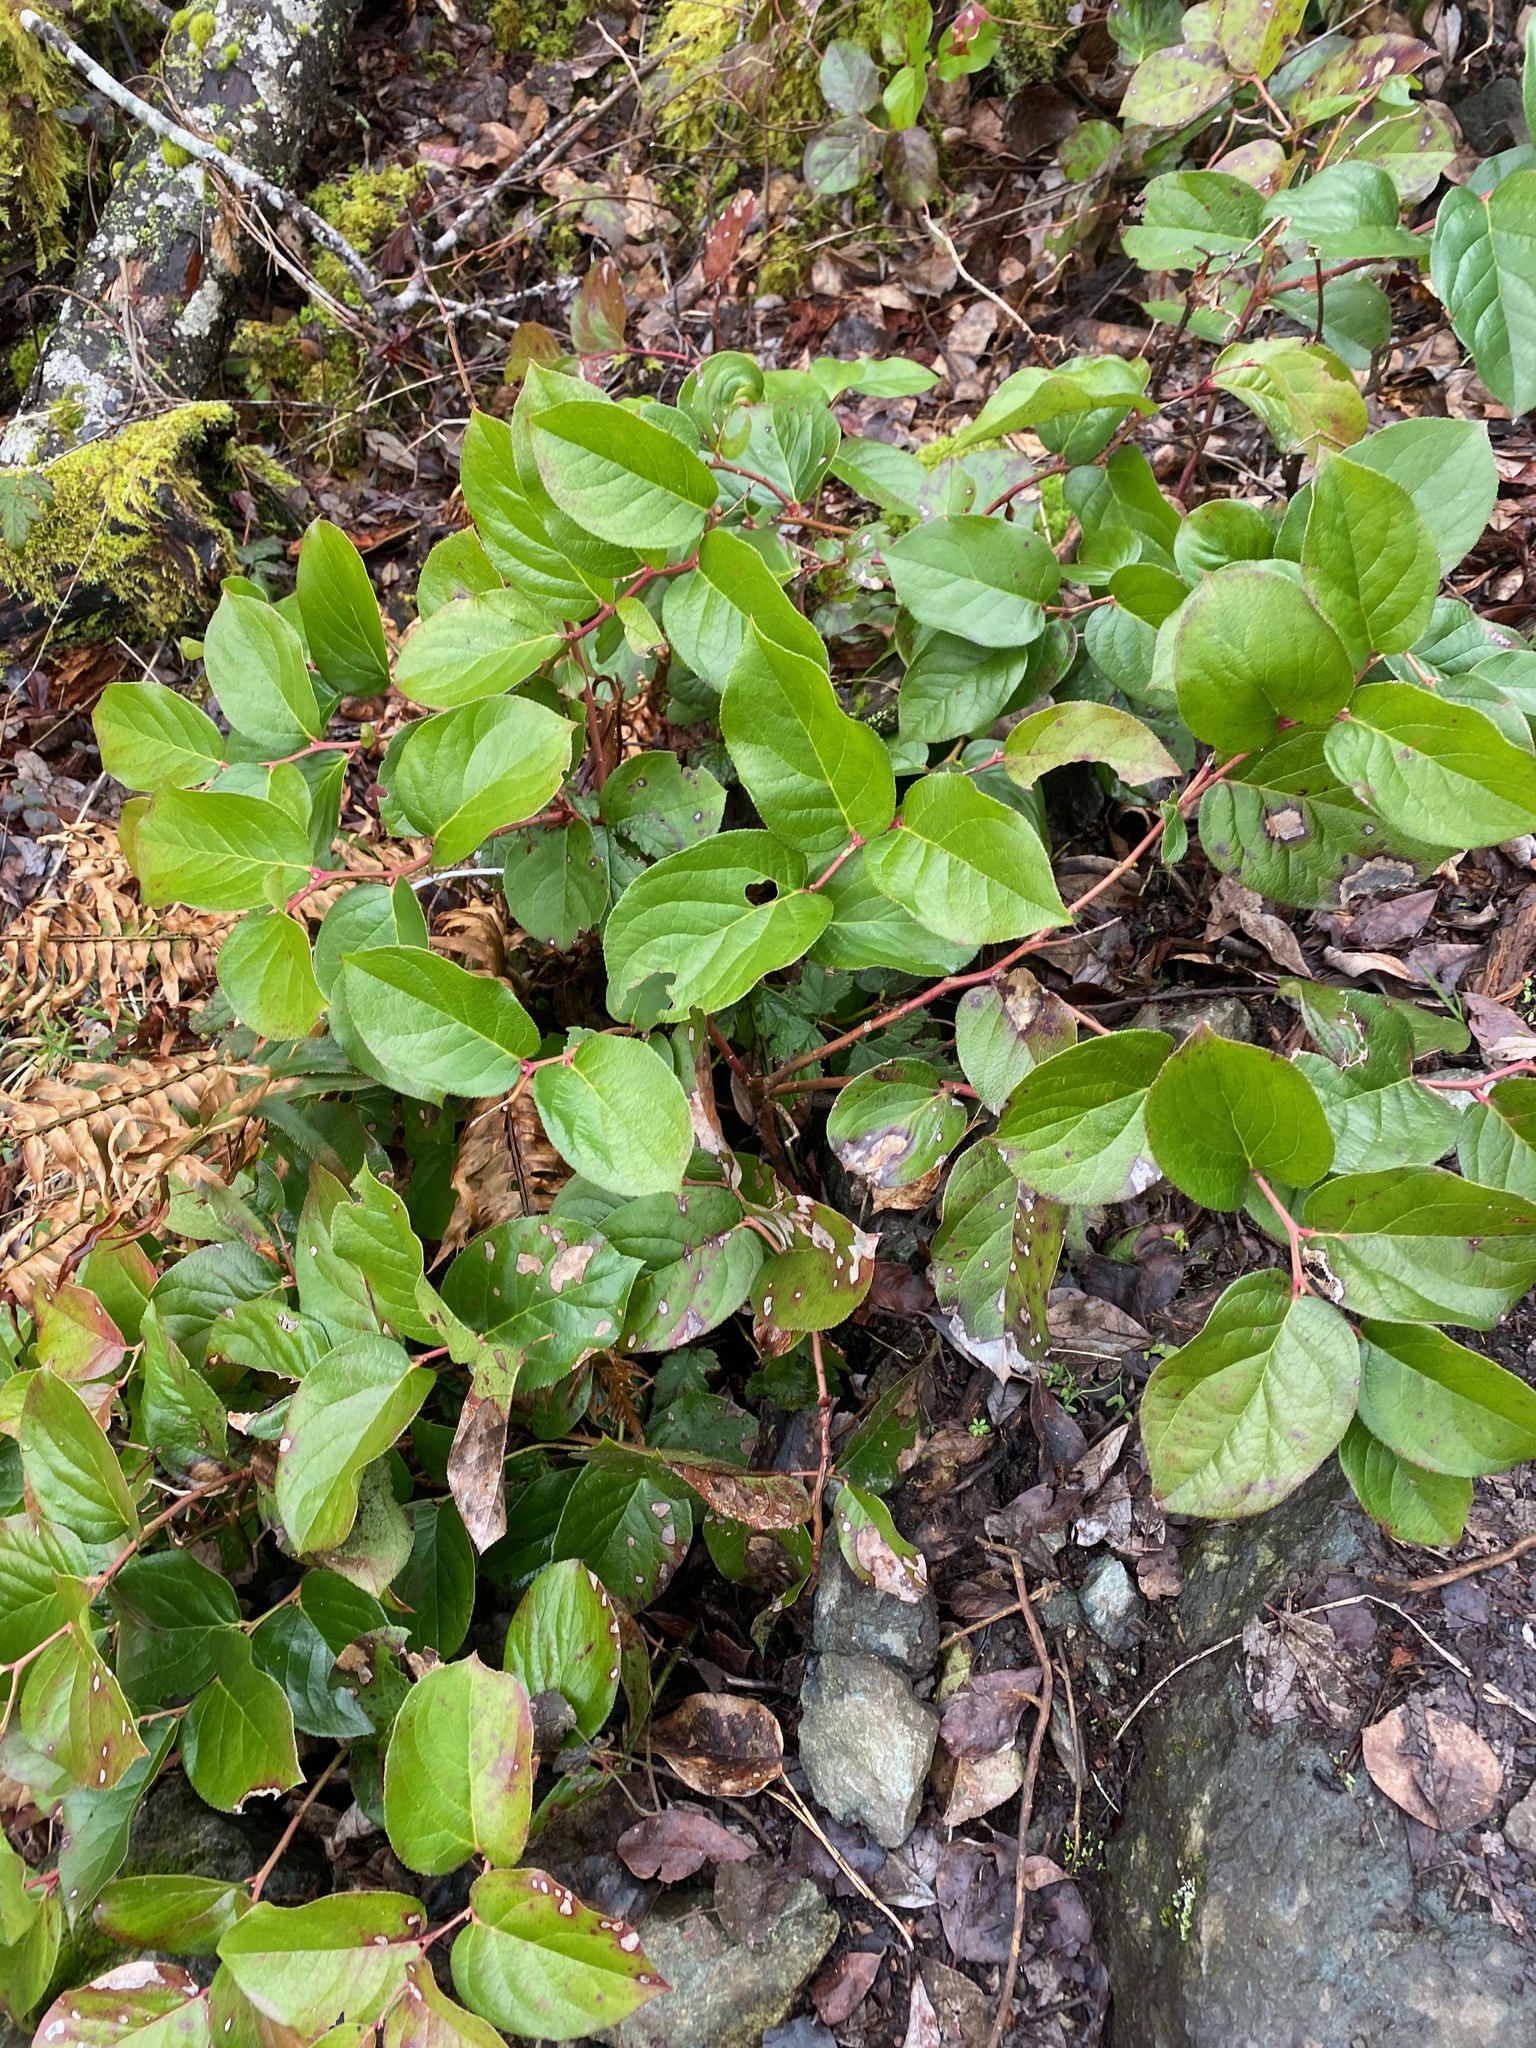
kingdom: Plantae
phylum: Tracheophyta
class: Magnoliopsida
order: Ericales
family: Ericaceae
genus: Gaultheria
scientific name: Gaultheria shallon
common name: Shallon
